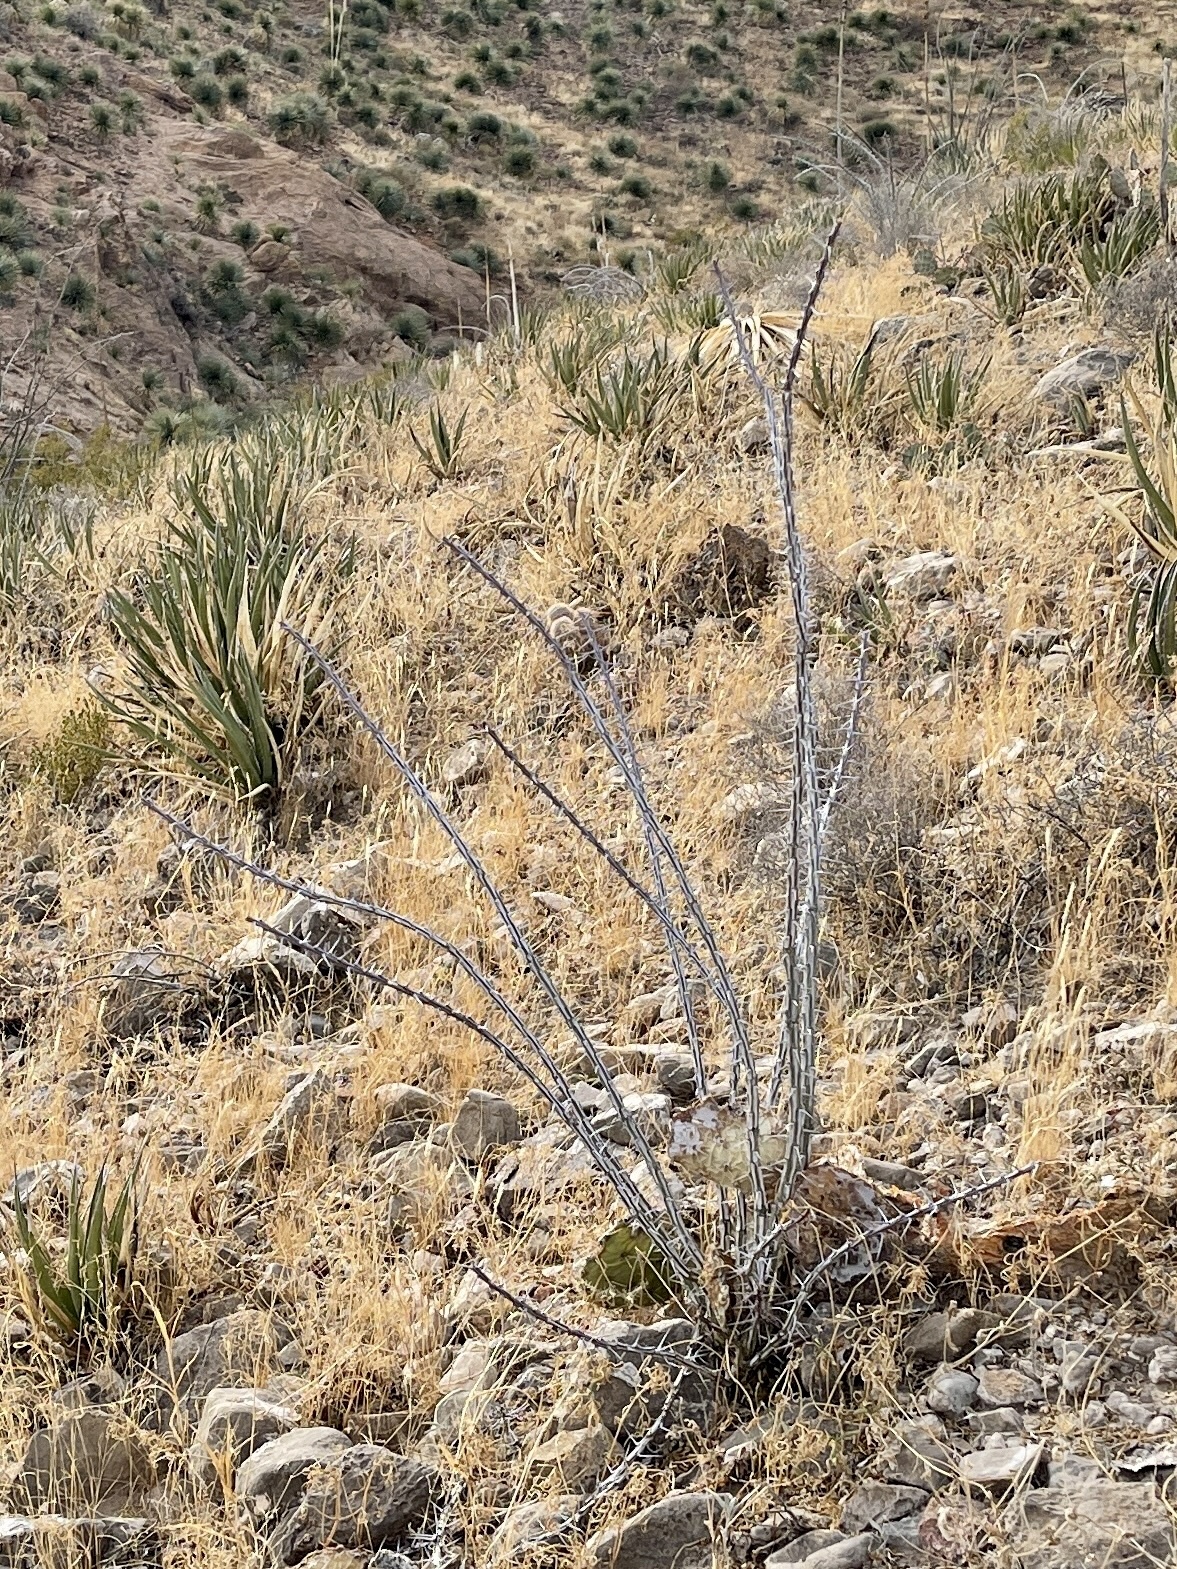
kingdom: Plantae
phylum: Tracheophyta
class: Magnoliopsida
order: Ericales
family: Fouquieriaceae
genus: Fouquieria
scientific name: Fouquieria splendens
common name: Vine-cactus
